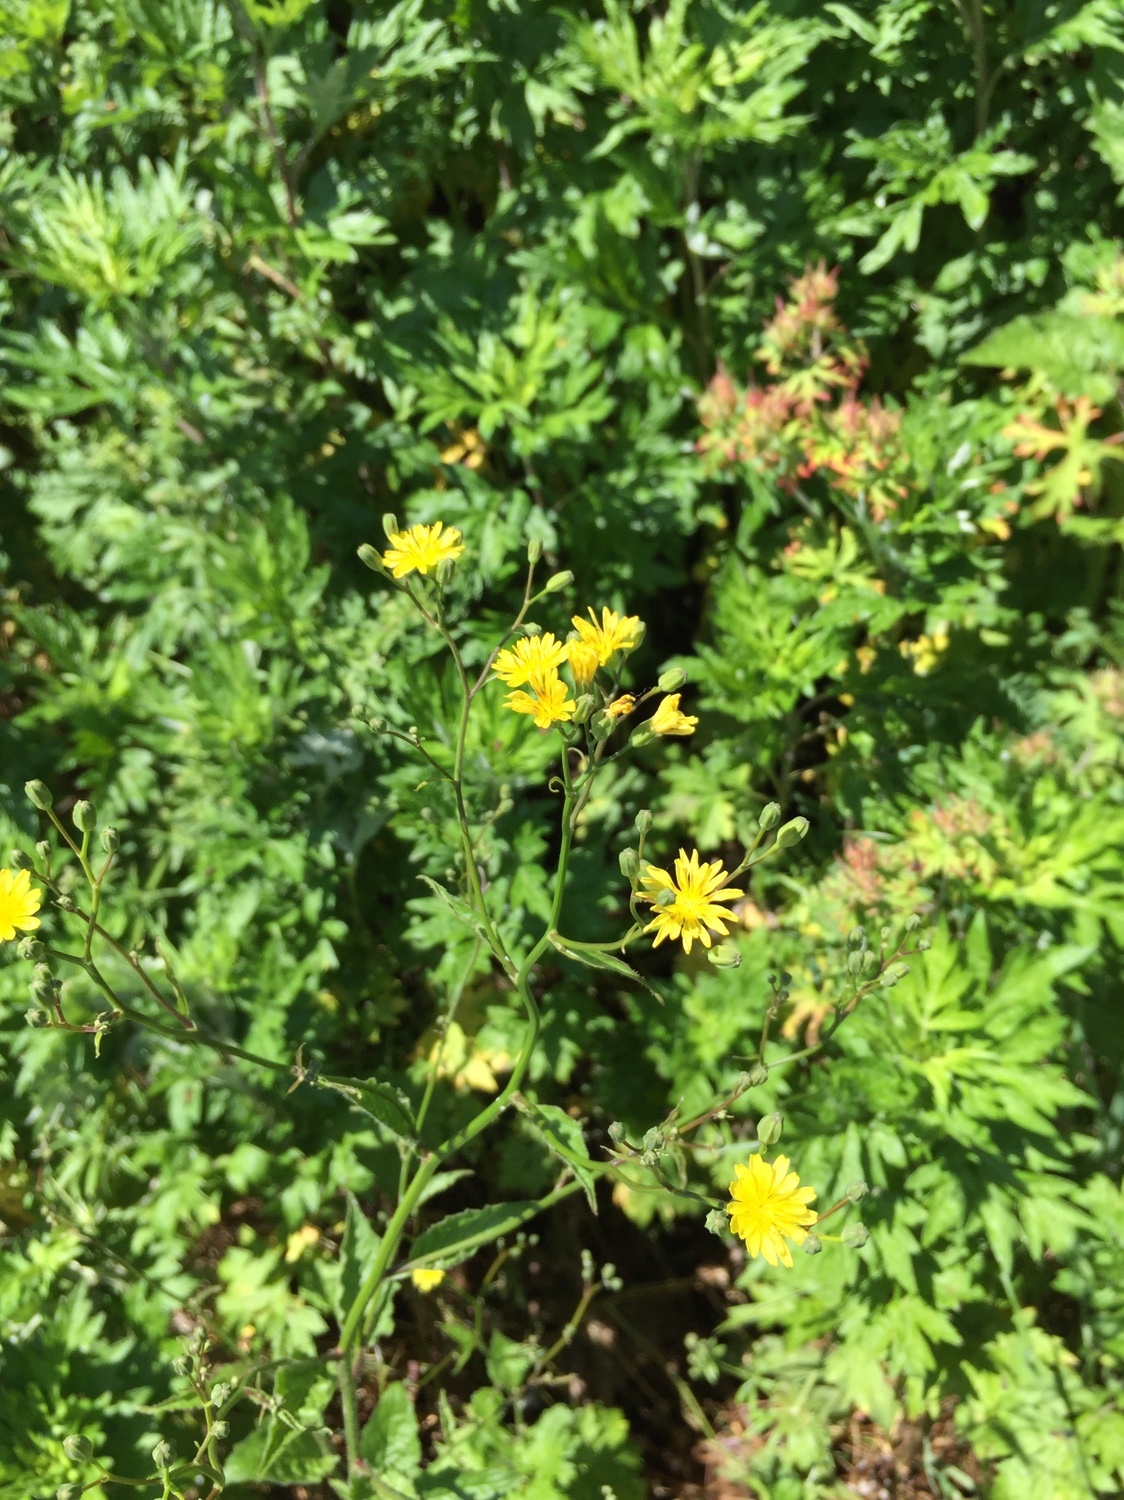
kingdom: Plantae
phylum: Tracheophyta
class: Magnoliopsida
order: Asterales
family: Asteraceae
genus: Lapsana
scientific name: Lapsana communis
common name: Nipplewort
